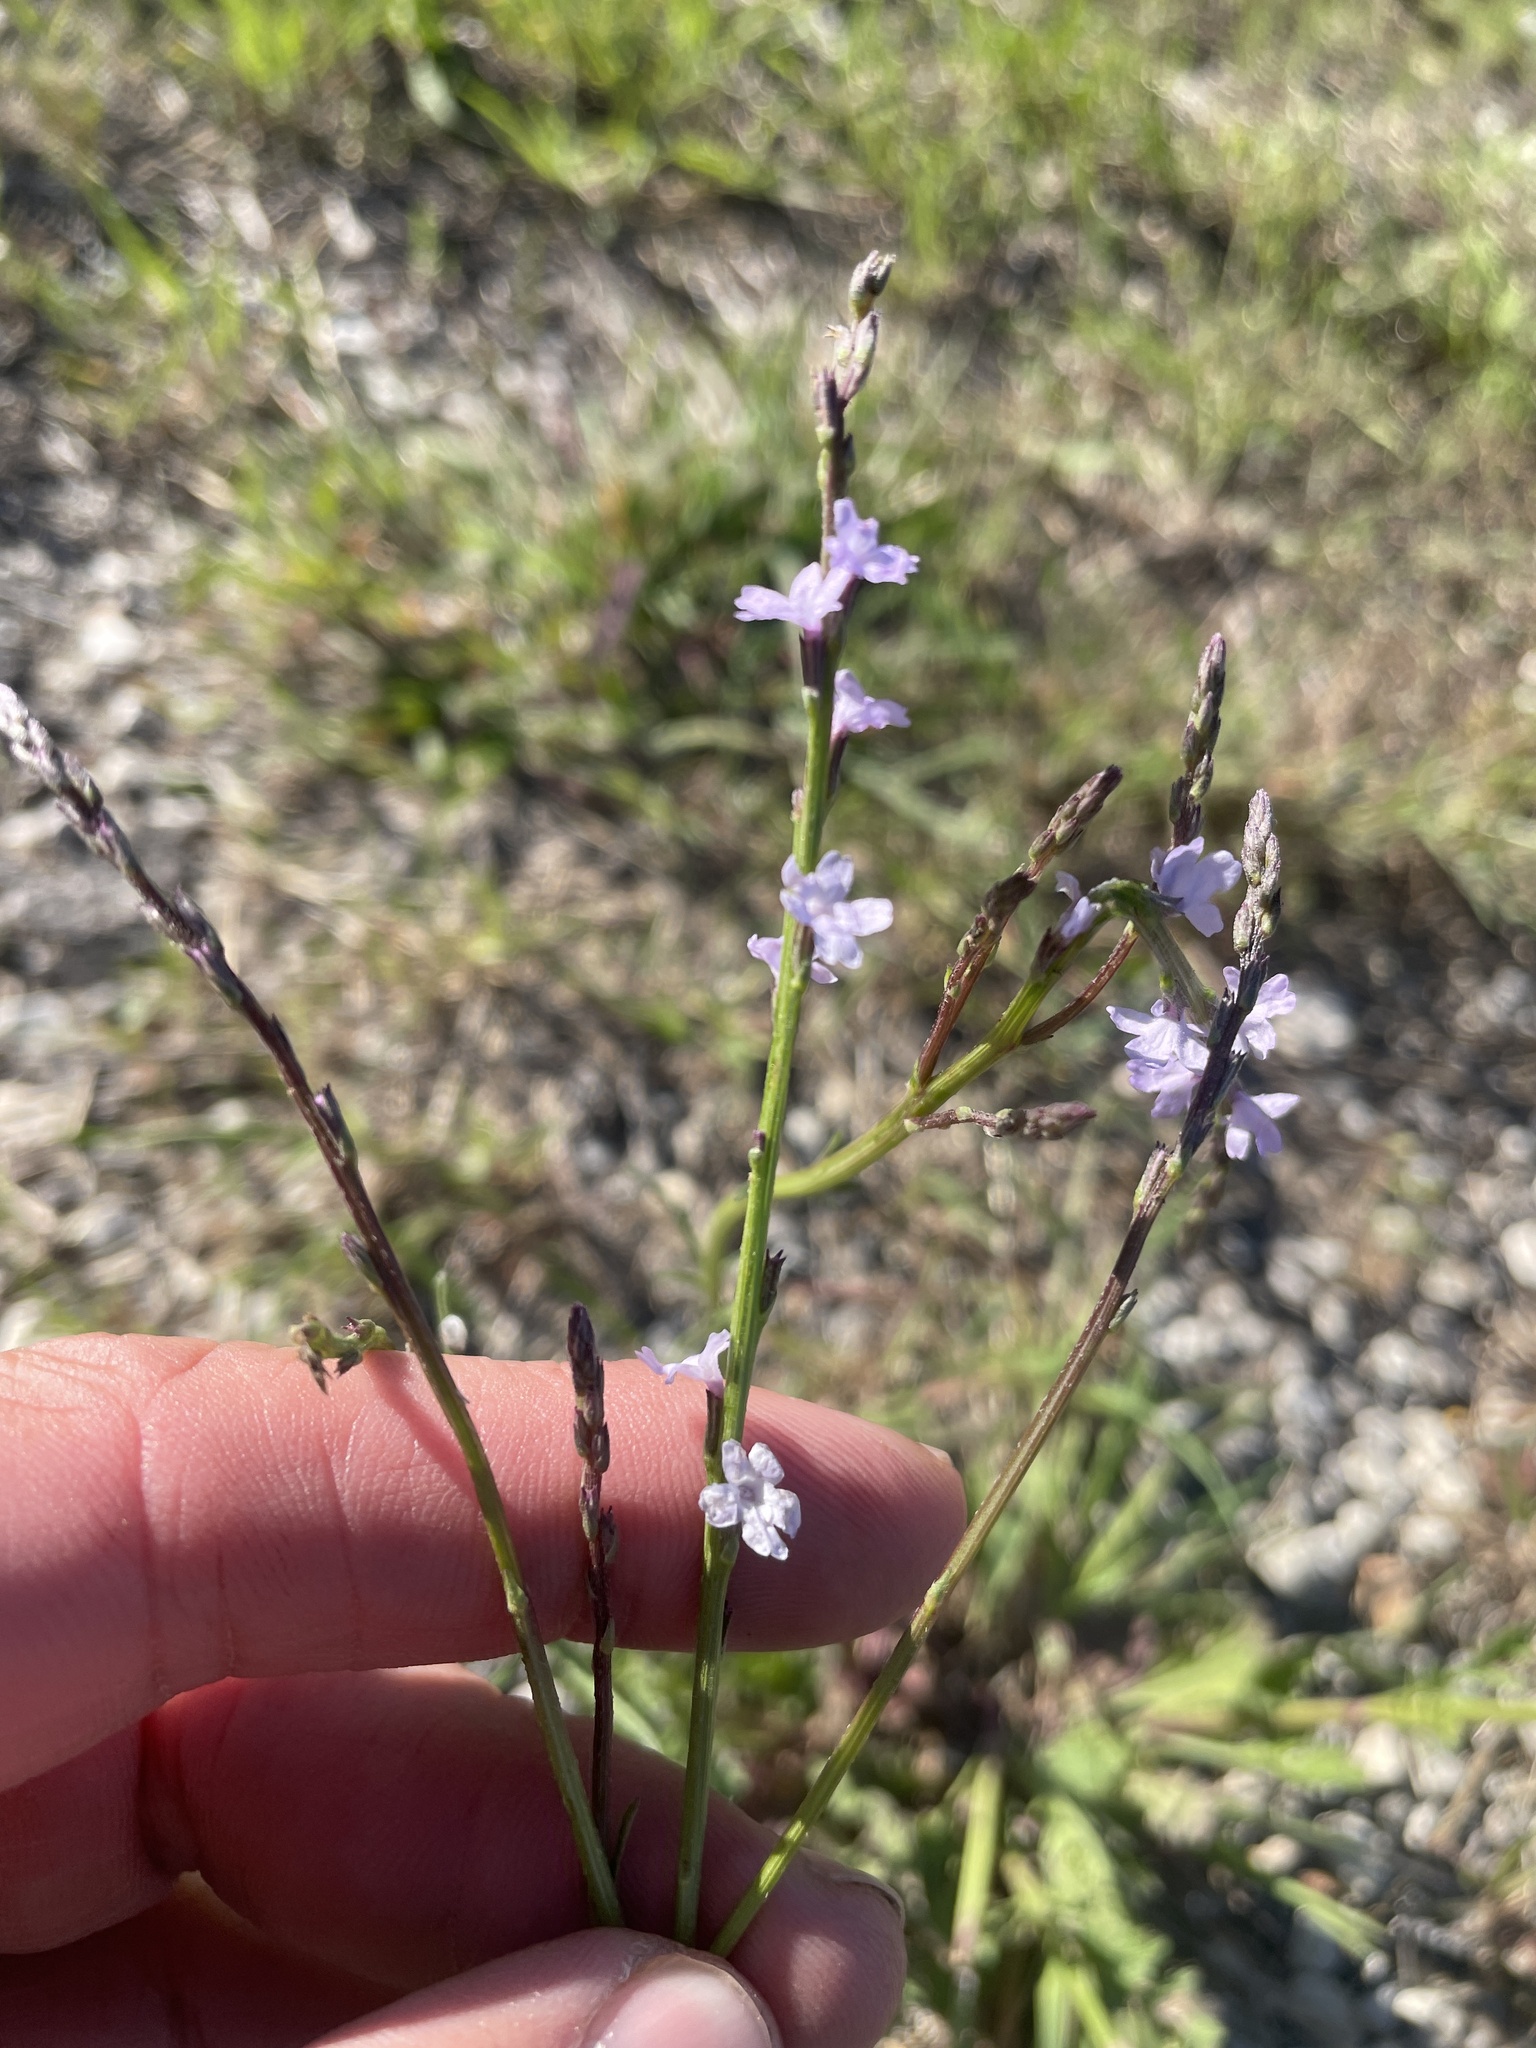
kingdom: Plantae
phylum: Tracheophyta
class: Magnoliopsida
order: Lamiales
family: Verbenaceae
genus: Verbena
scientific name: Verbena halei
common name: Texas vervain
